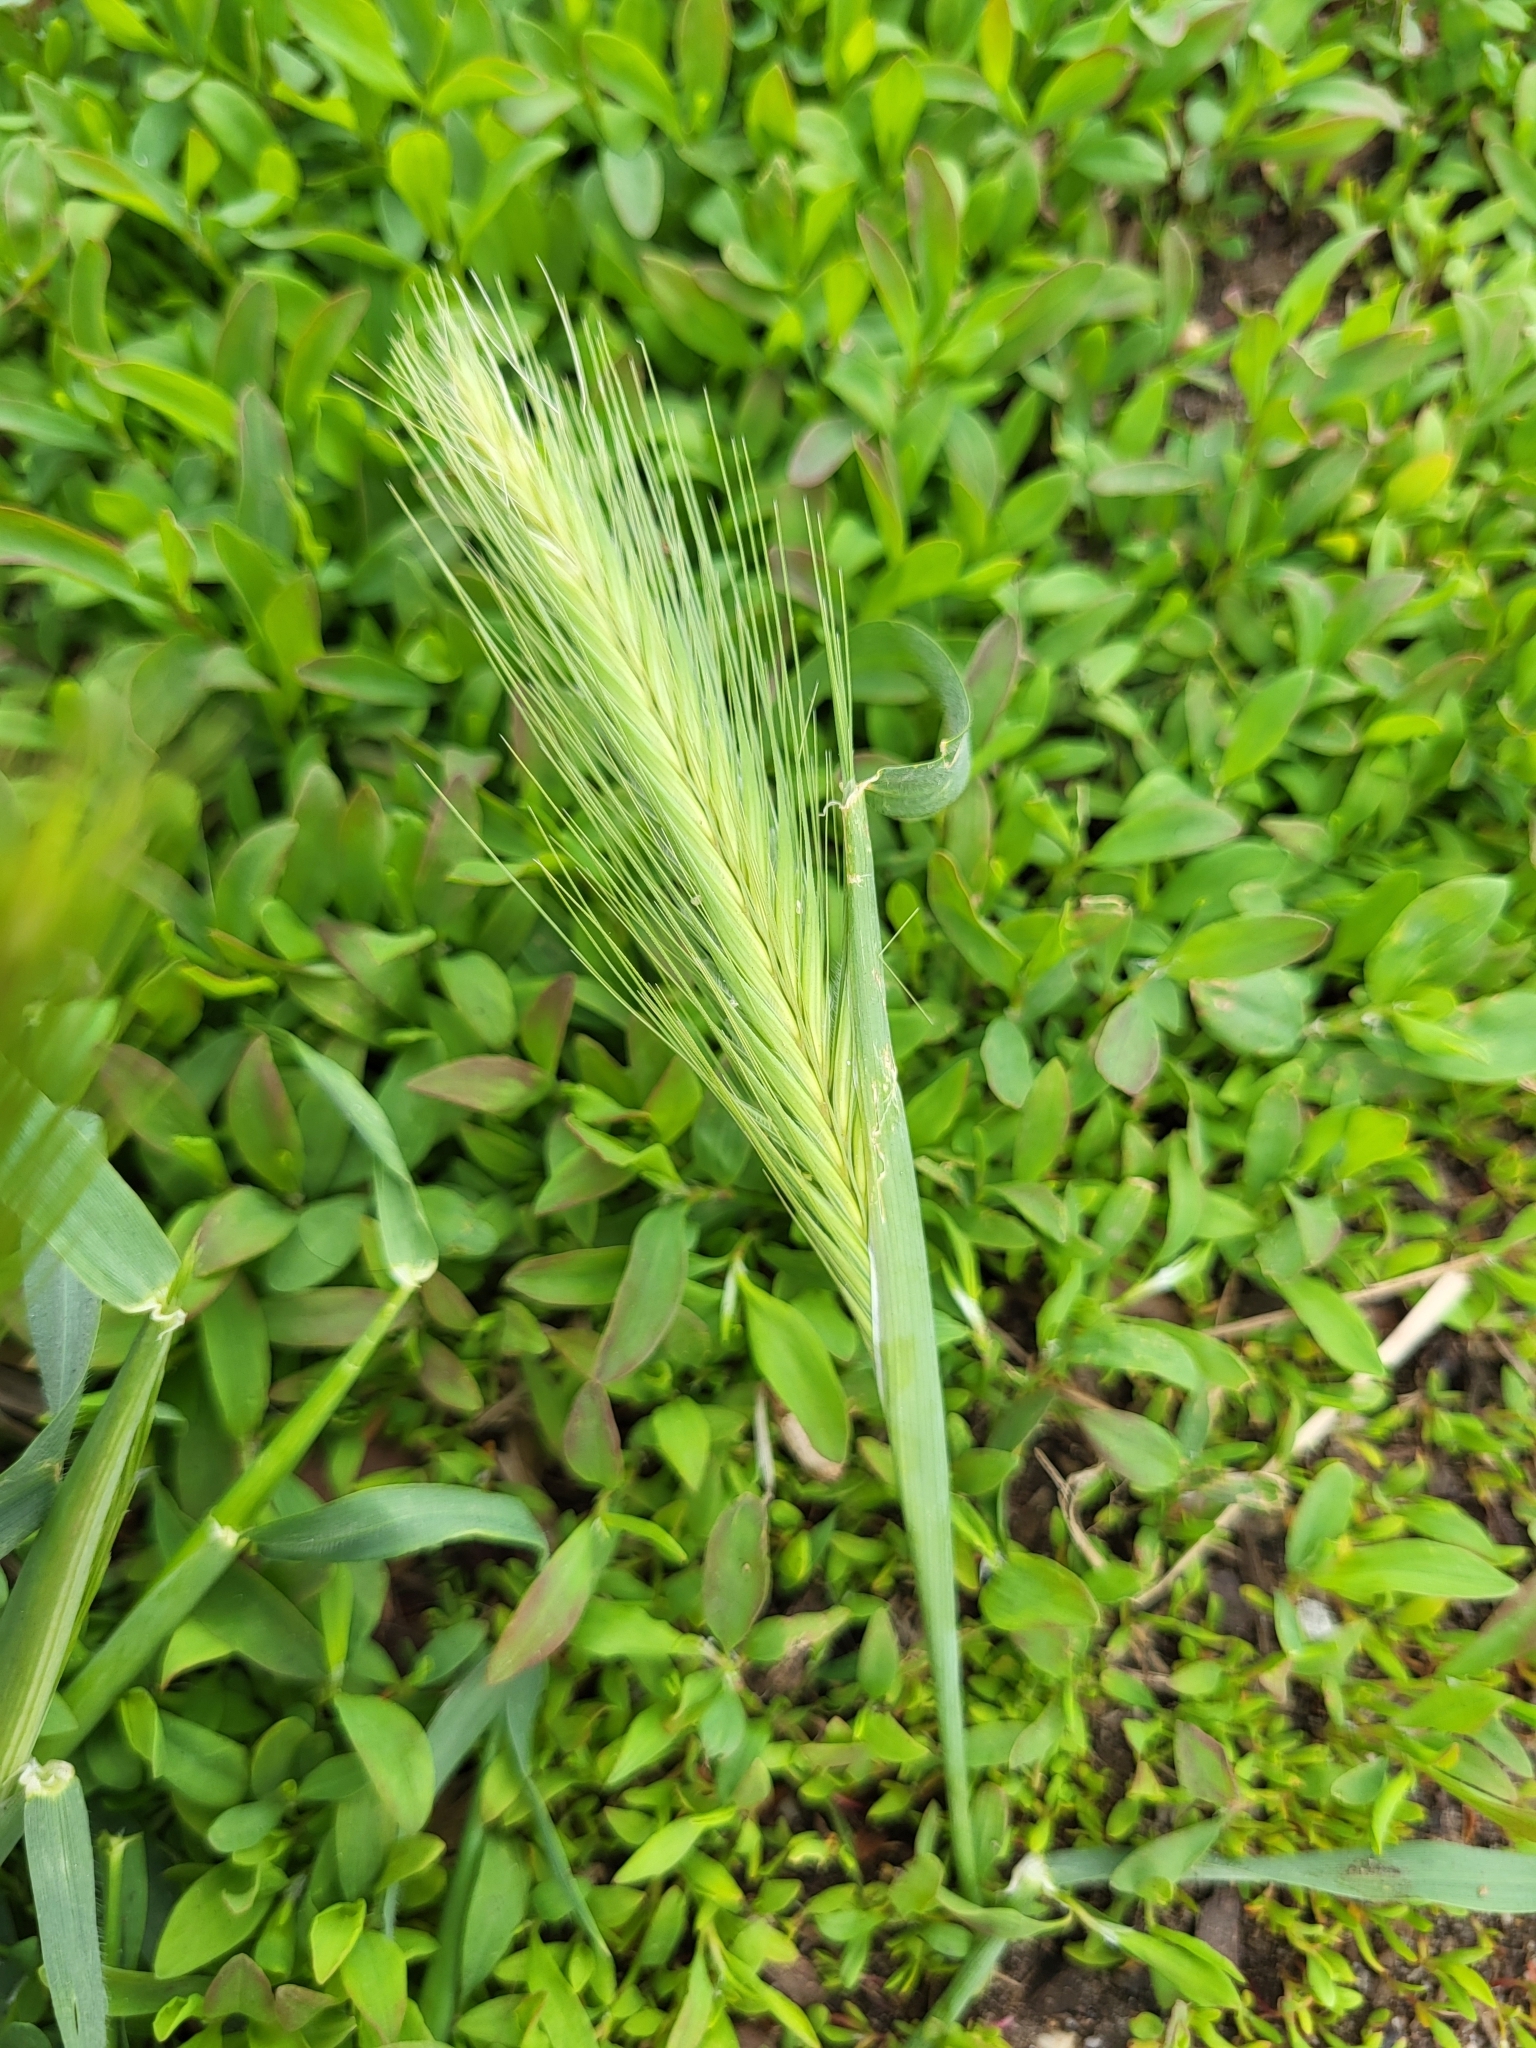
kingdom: Plantae
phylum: Tracheophyta
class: Liliopsida
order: Poales
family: Poaceae
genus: Hordeum
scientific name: Hordeum murinum
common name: Wall barley
